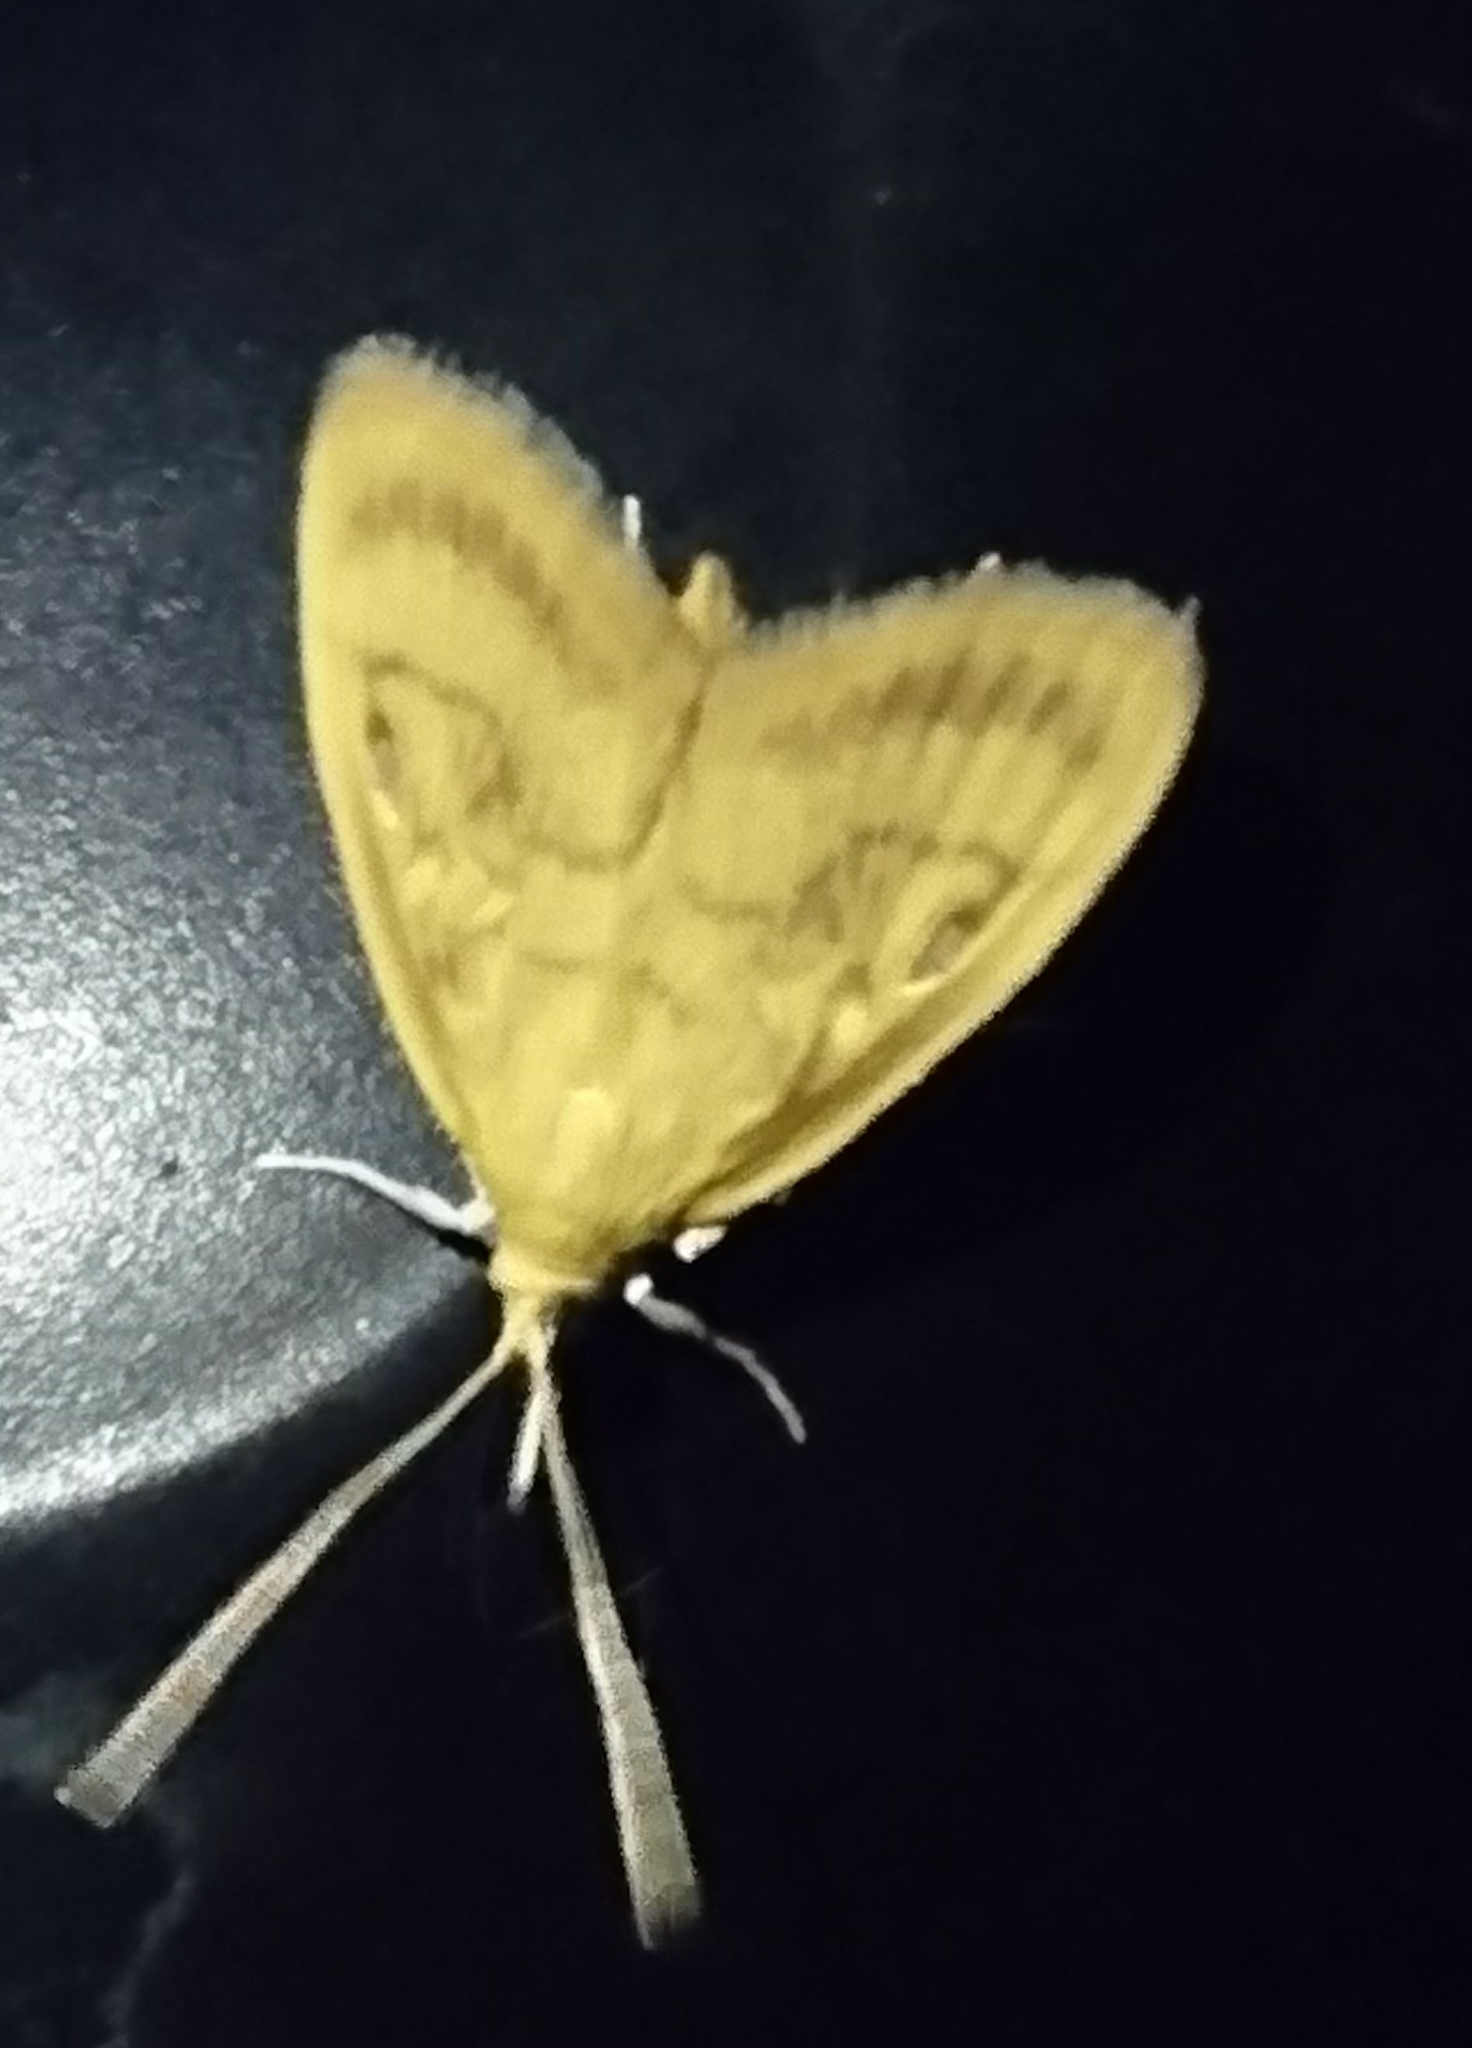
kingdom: Animalia
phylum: Arthropoda
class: Insecta
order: Lepidoptera
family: Crambidae
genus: Crocidophora
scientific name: Crocidophora tuberculalis
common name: Pale-winged crocidiphora moth
